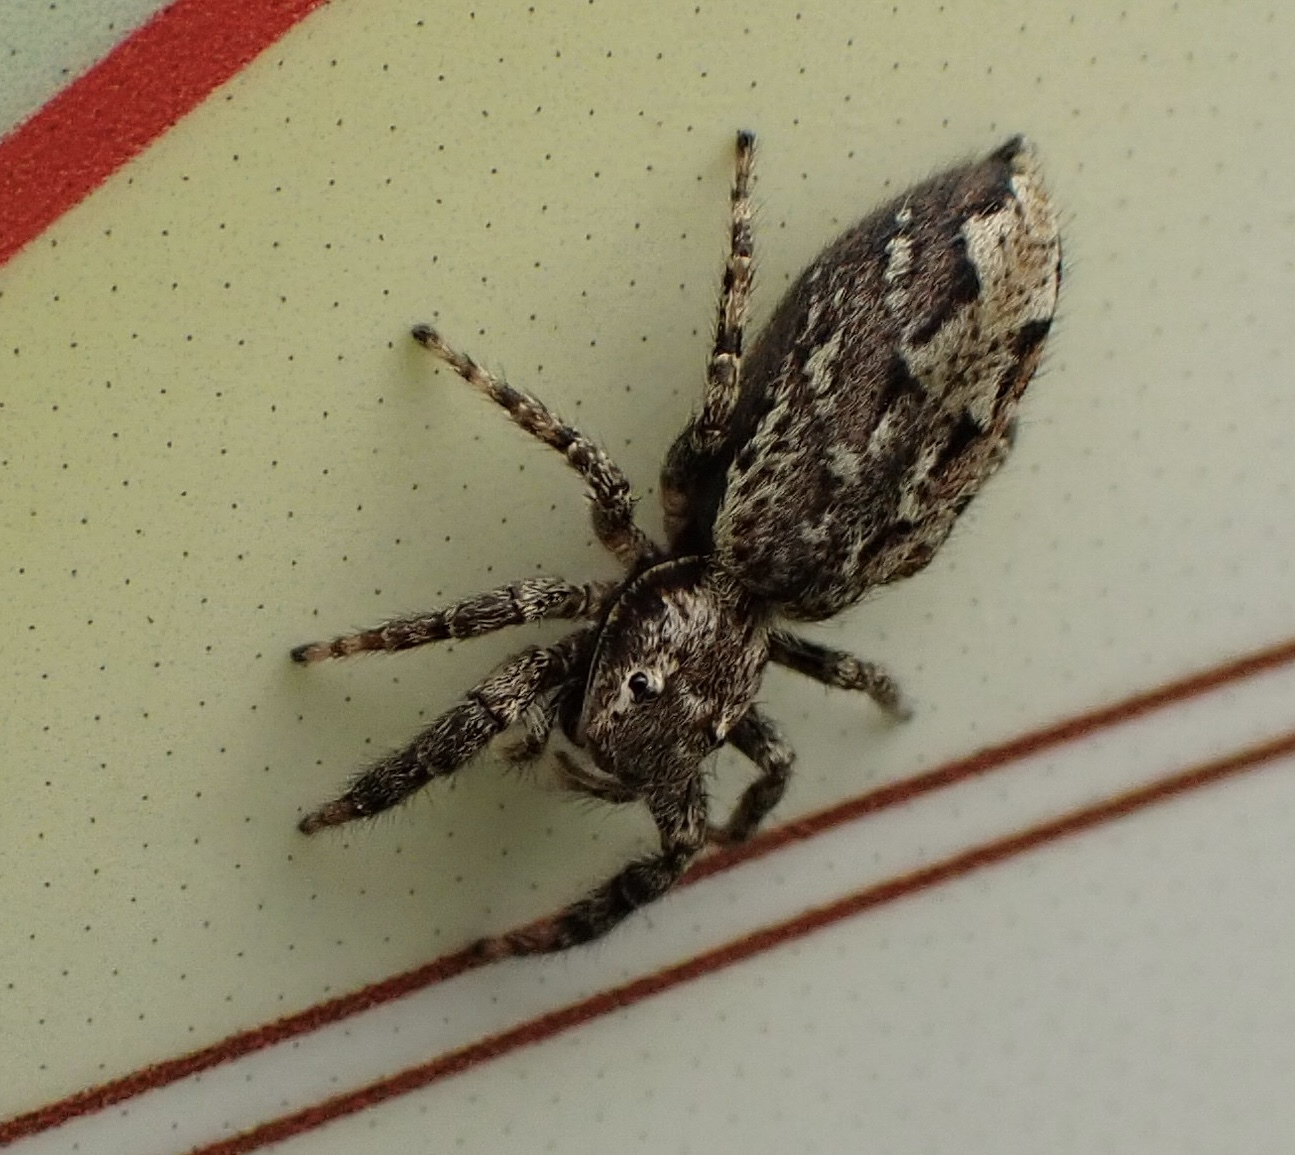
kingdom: Animalia
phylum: Arthropoda
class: Arachnida
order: Araneae
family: Salticidae
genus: Marpissa
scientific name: Marpissa muscosa
